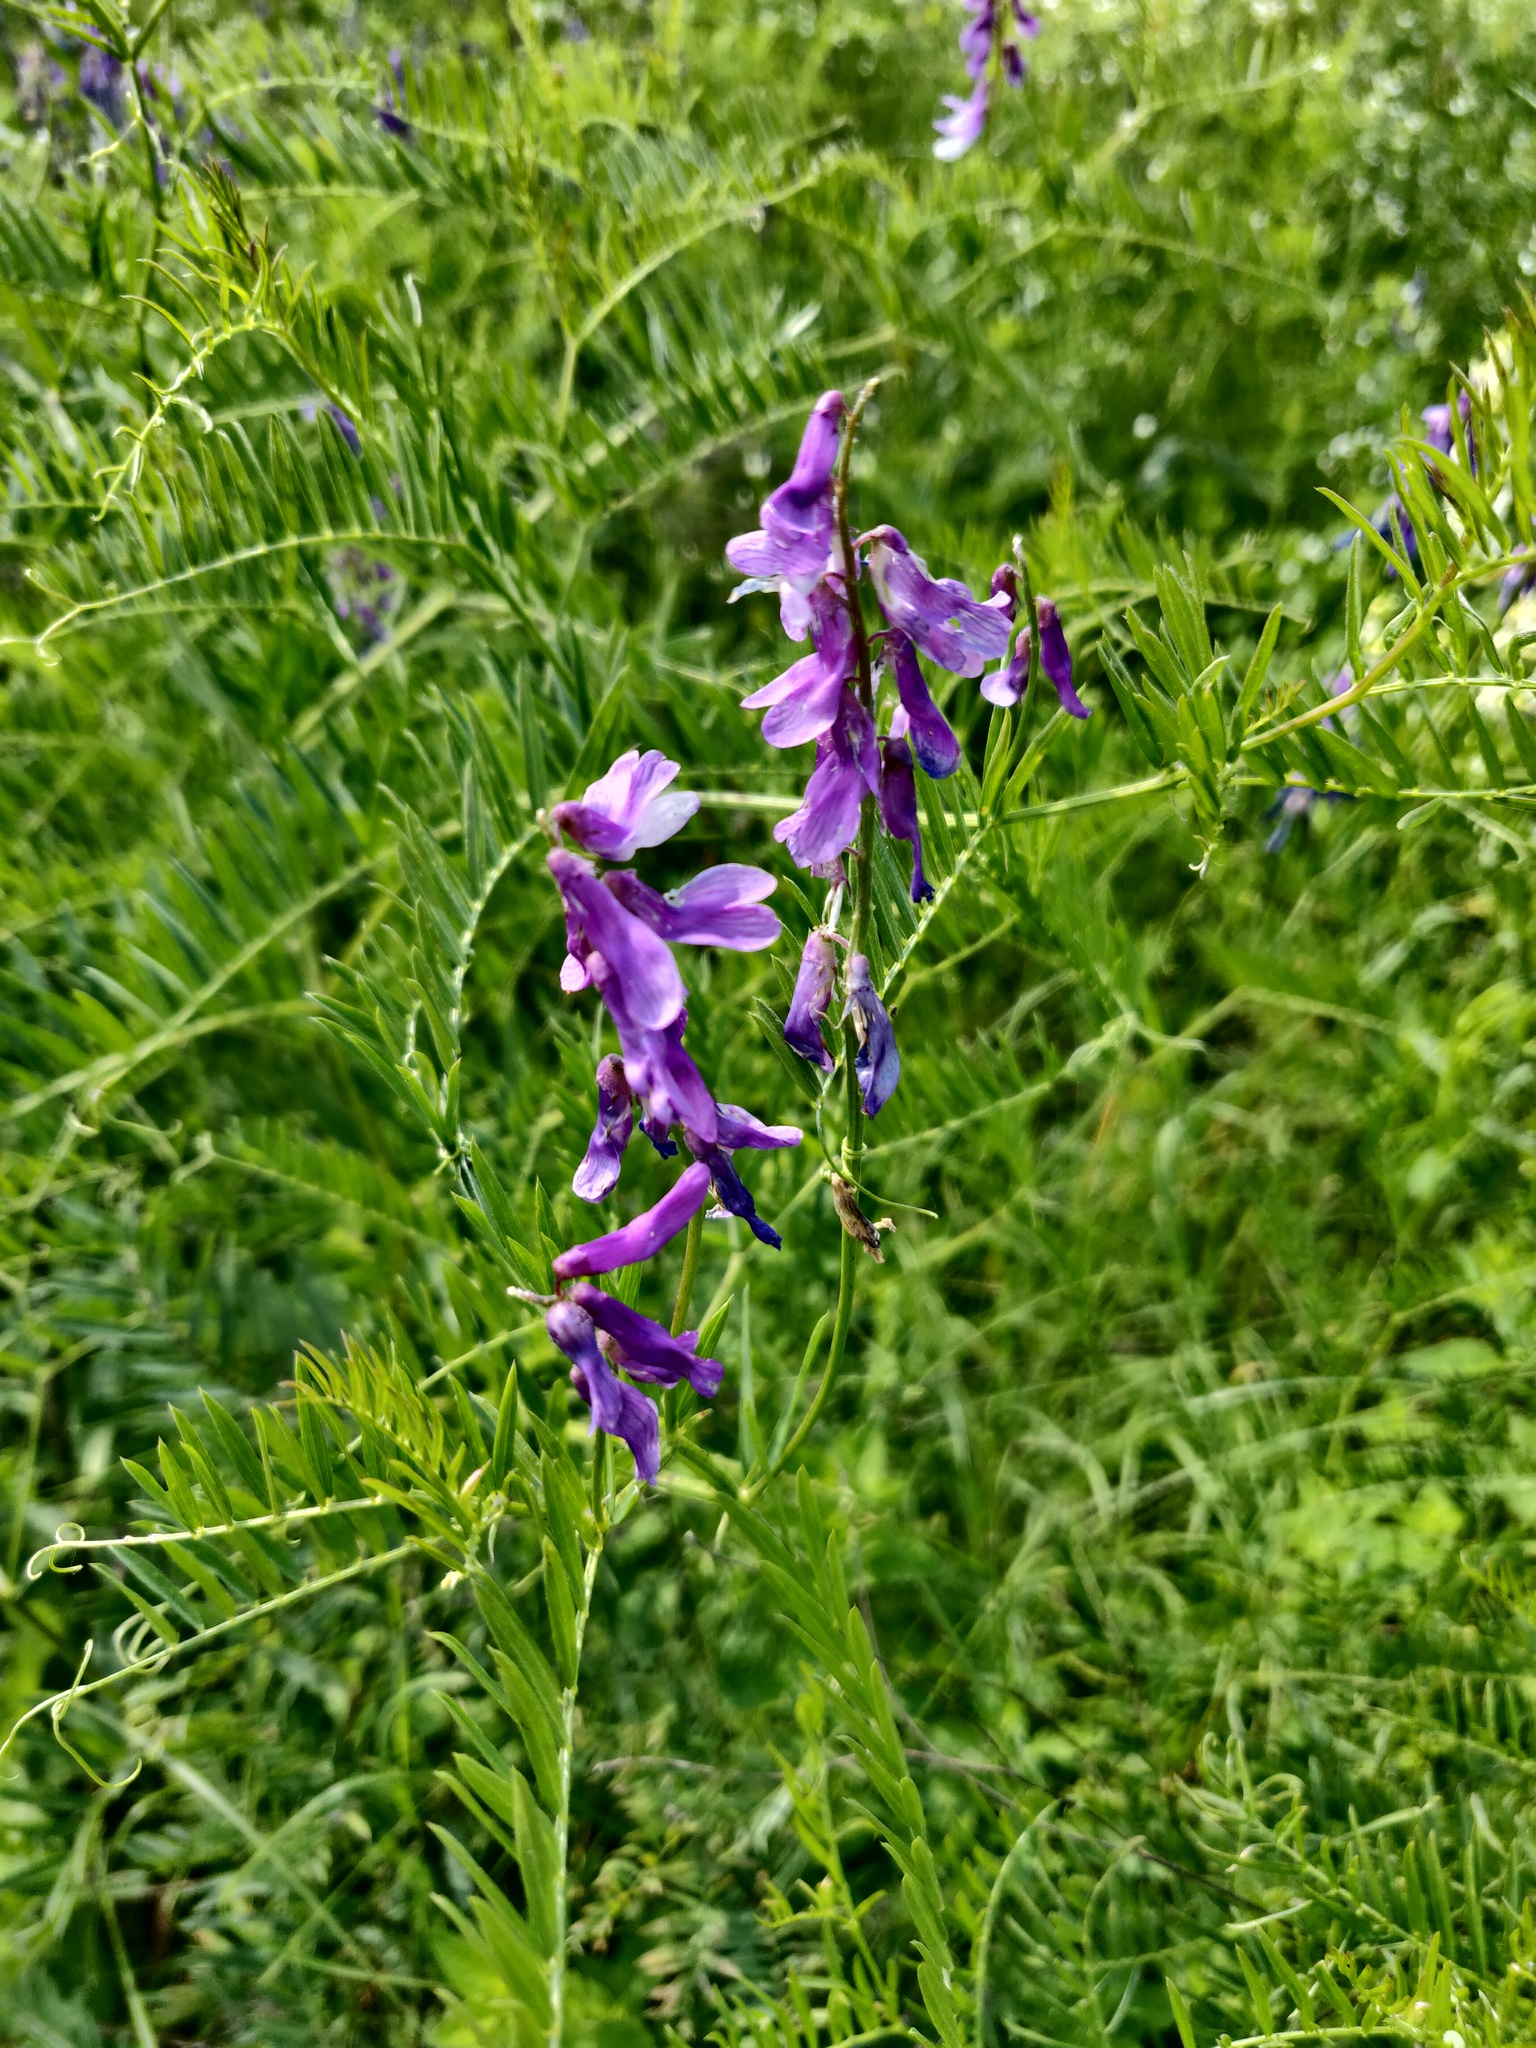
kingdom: Plantae
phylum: Tracheophyta
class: Magnoliopsida
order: Fabales
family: Fabaceae
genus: Vicia
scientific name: Vicia tenuifolia
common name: Fine-leaved vetch
